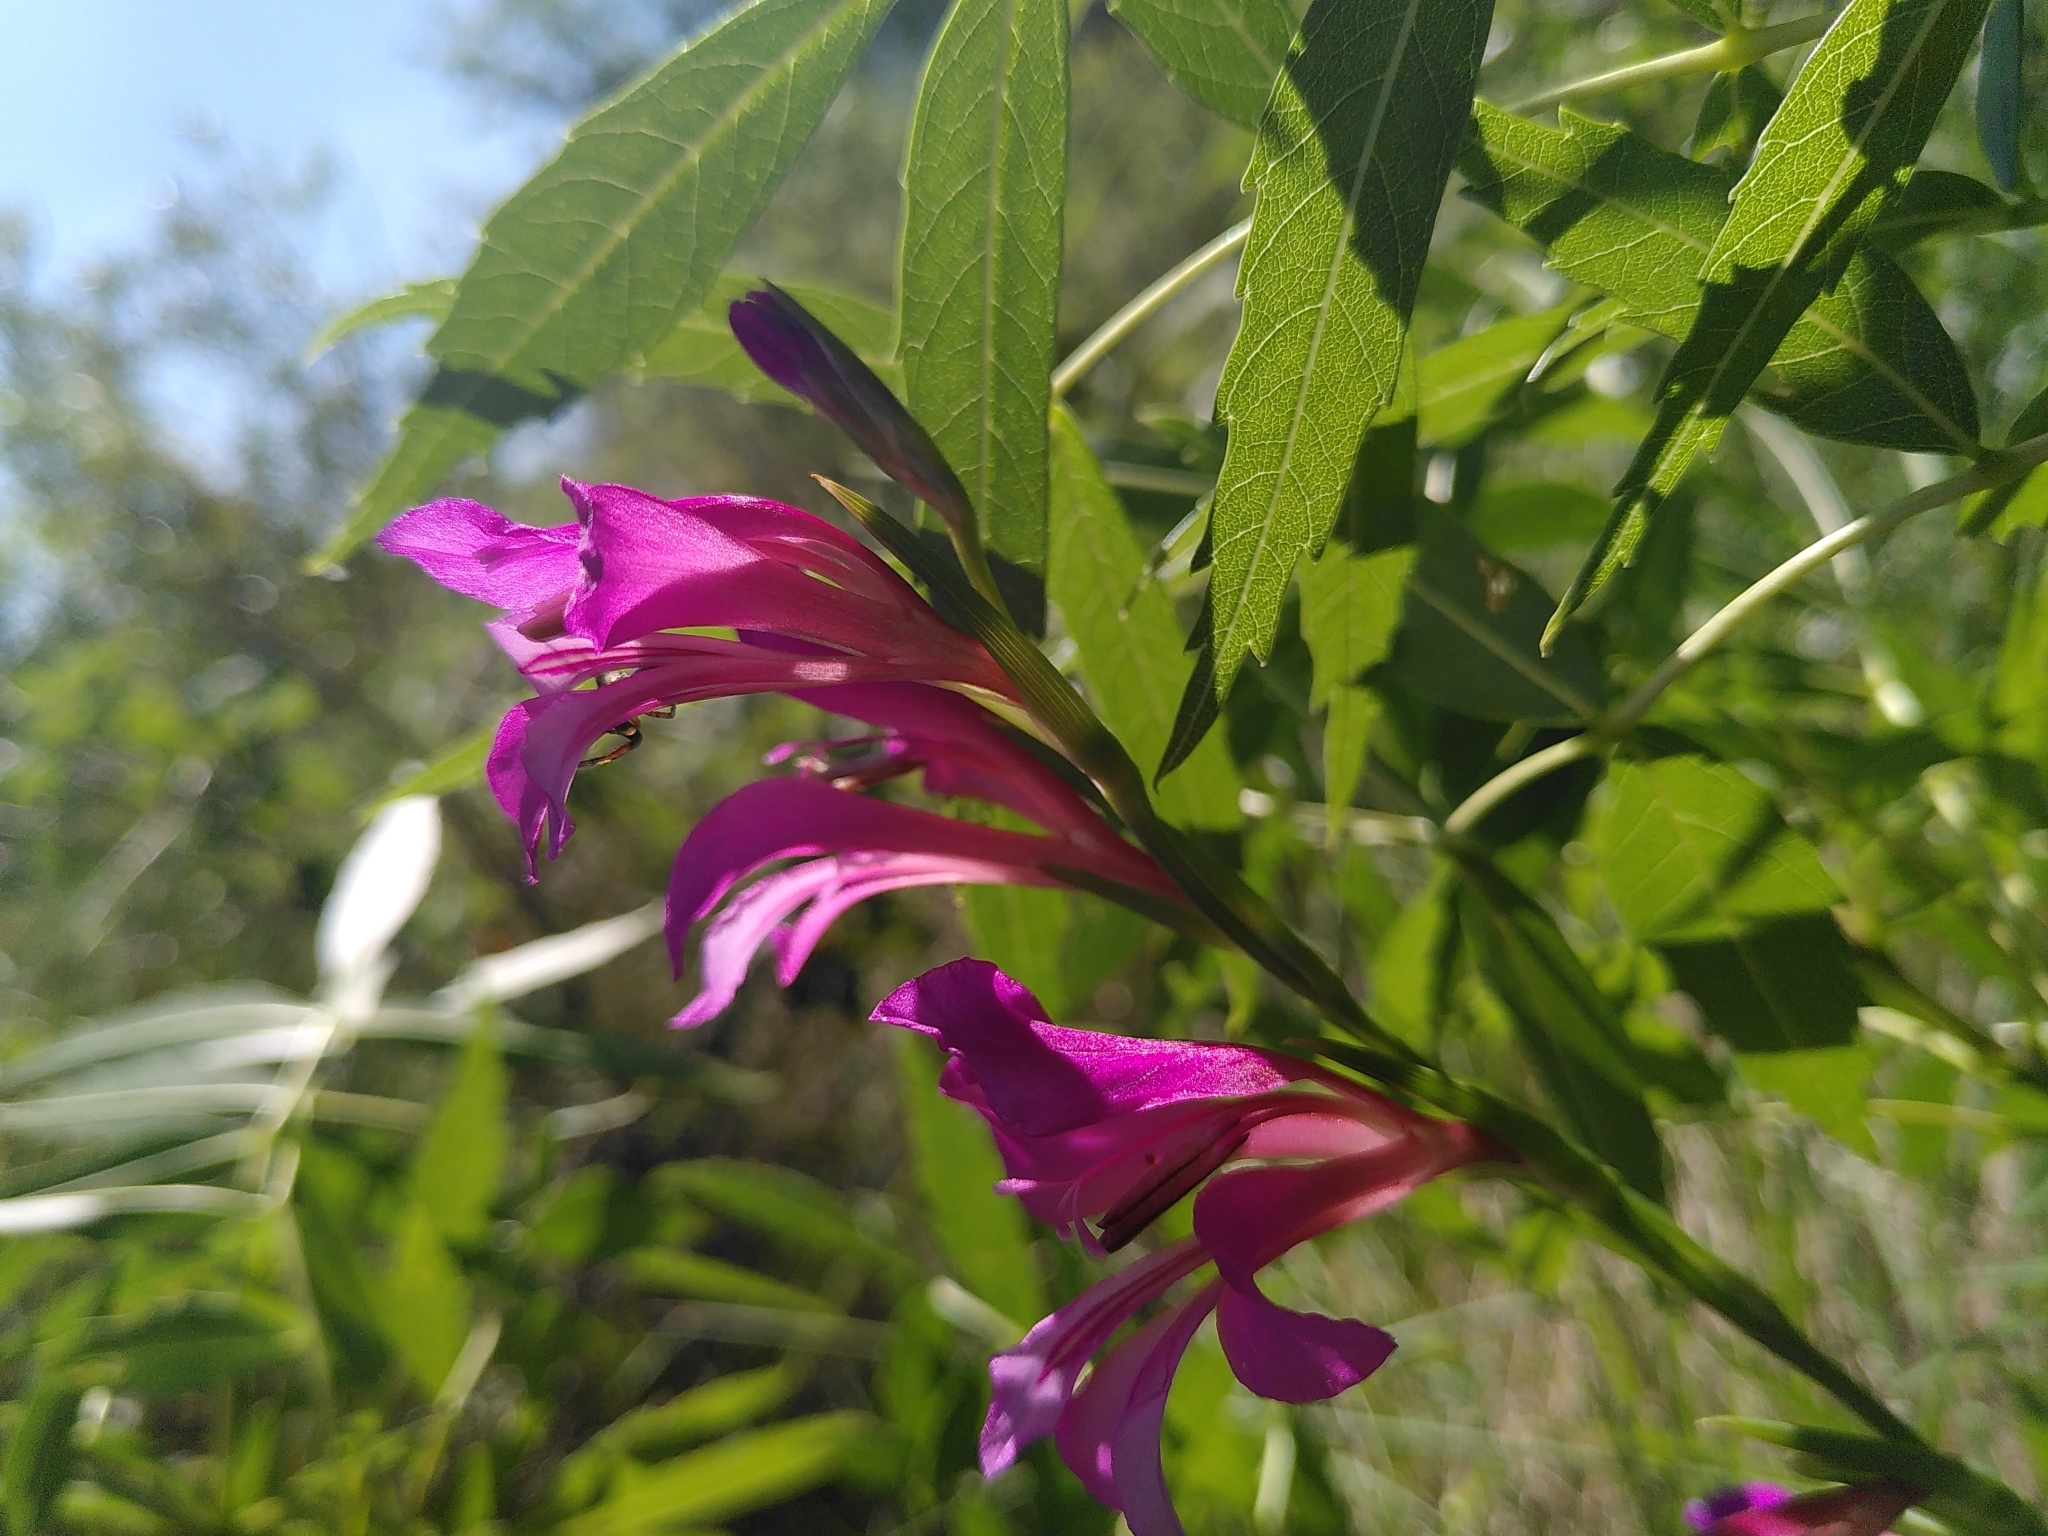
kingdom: Plantae
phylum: Tracheophyta
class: Liliopsida
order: Asparagales
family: Iridaceae
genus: Gladiolus
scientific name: Gladiolus dubius
